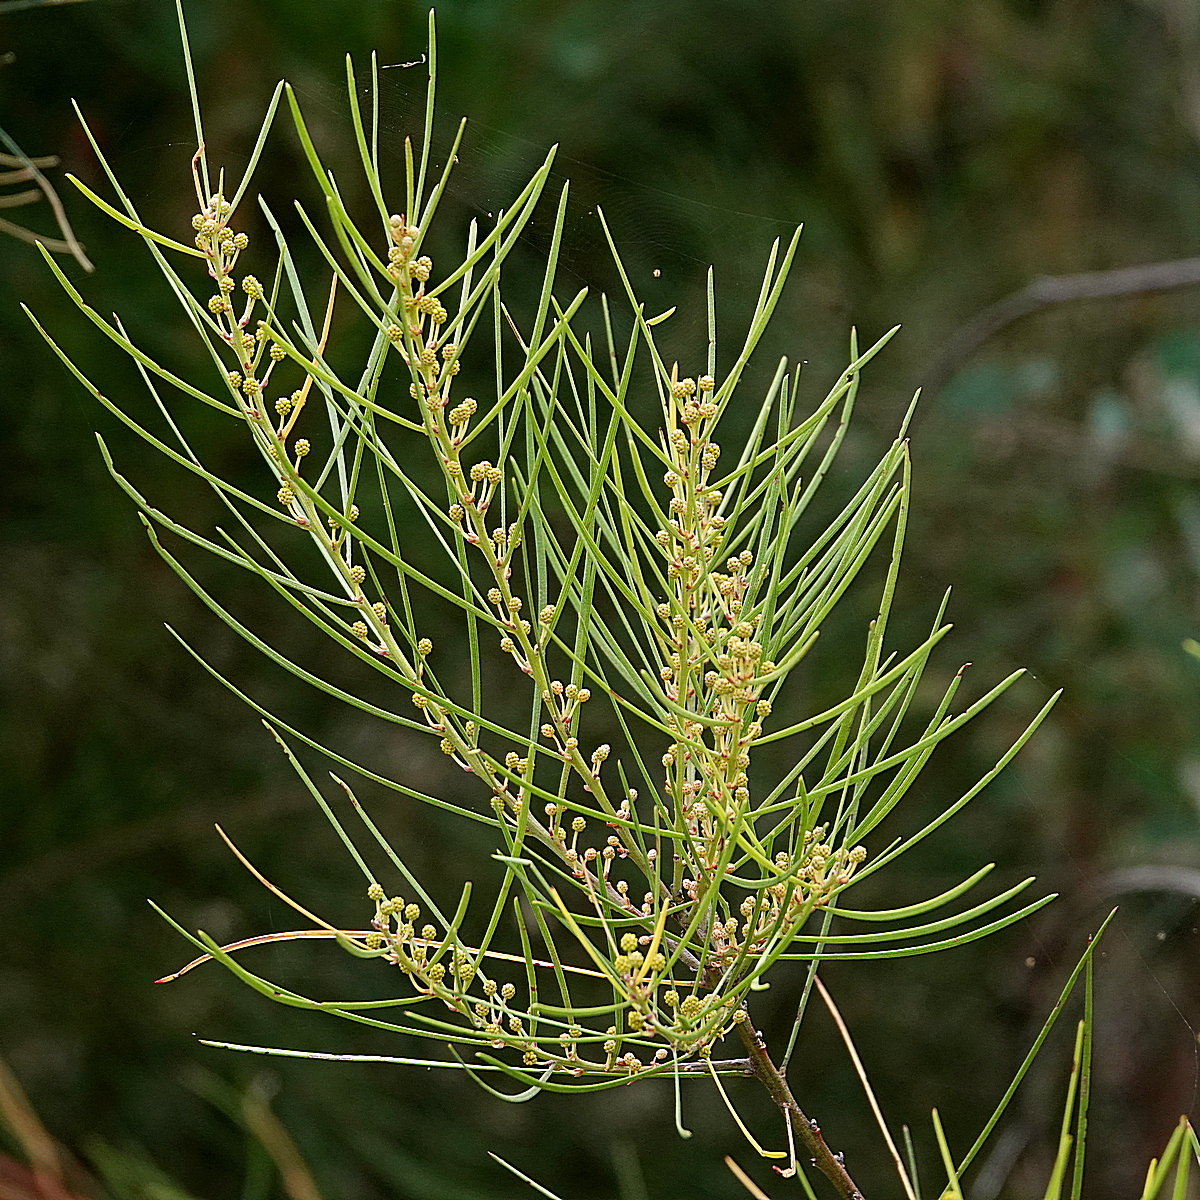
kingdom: Plantae
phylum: Tracheophyta
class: Magnoliopsida
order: Fabales
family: Fabaceae
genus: Acacia
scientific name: Acacia elongata
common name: Swamp wattle
